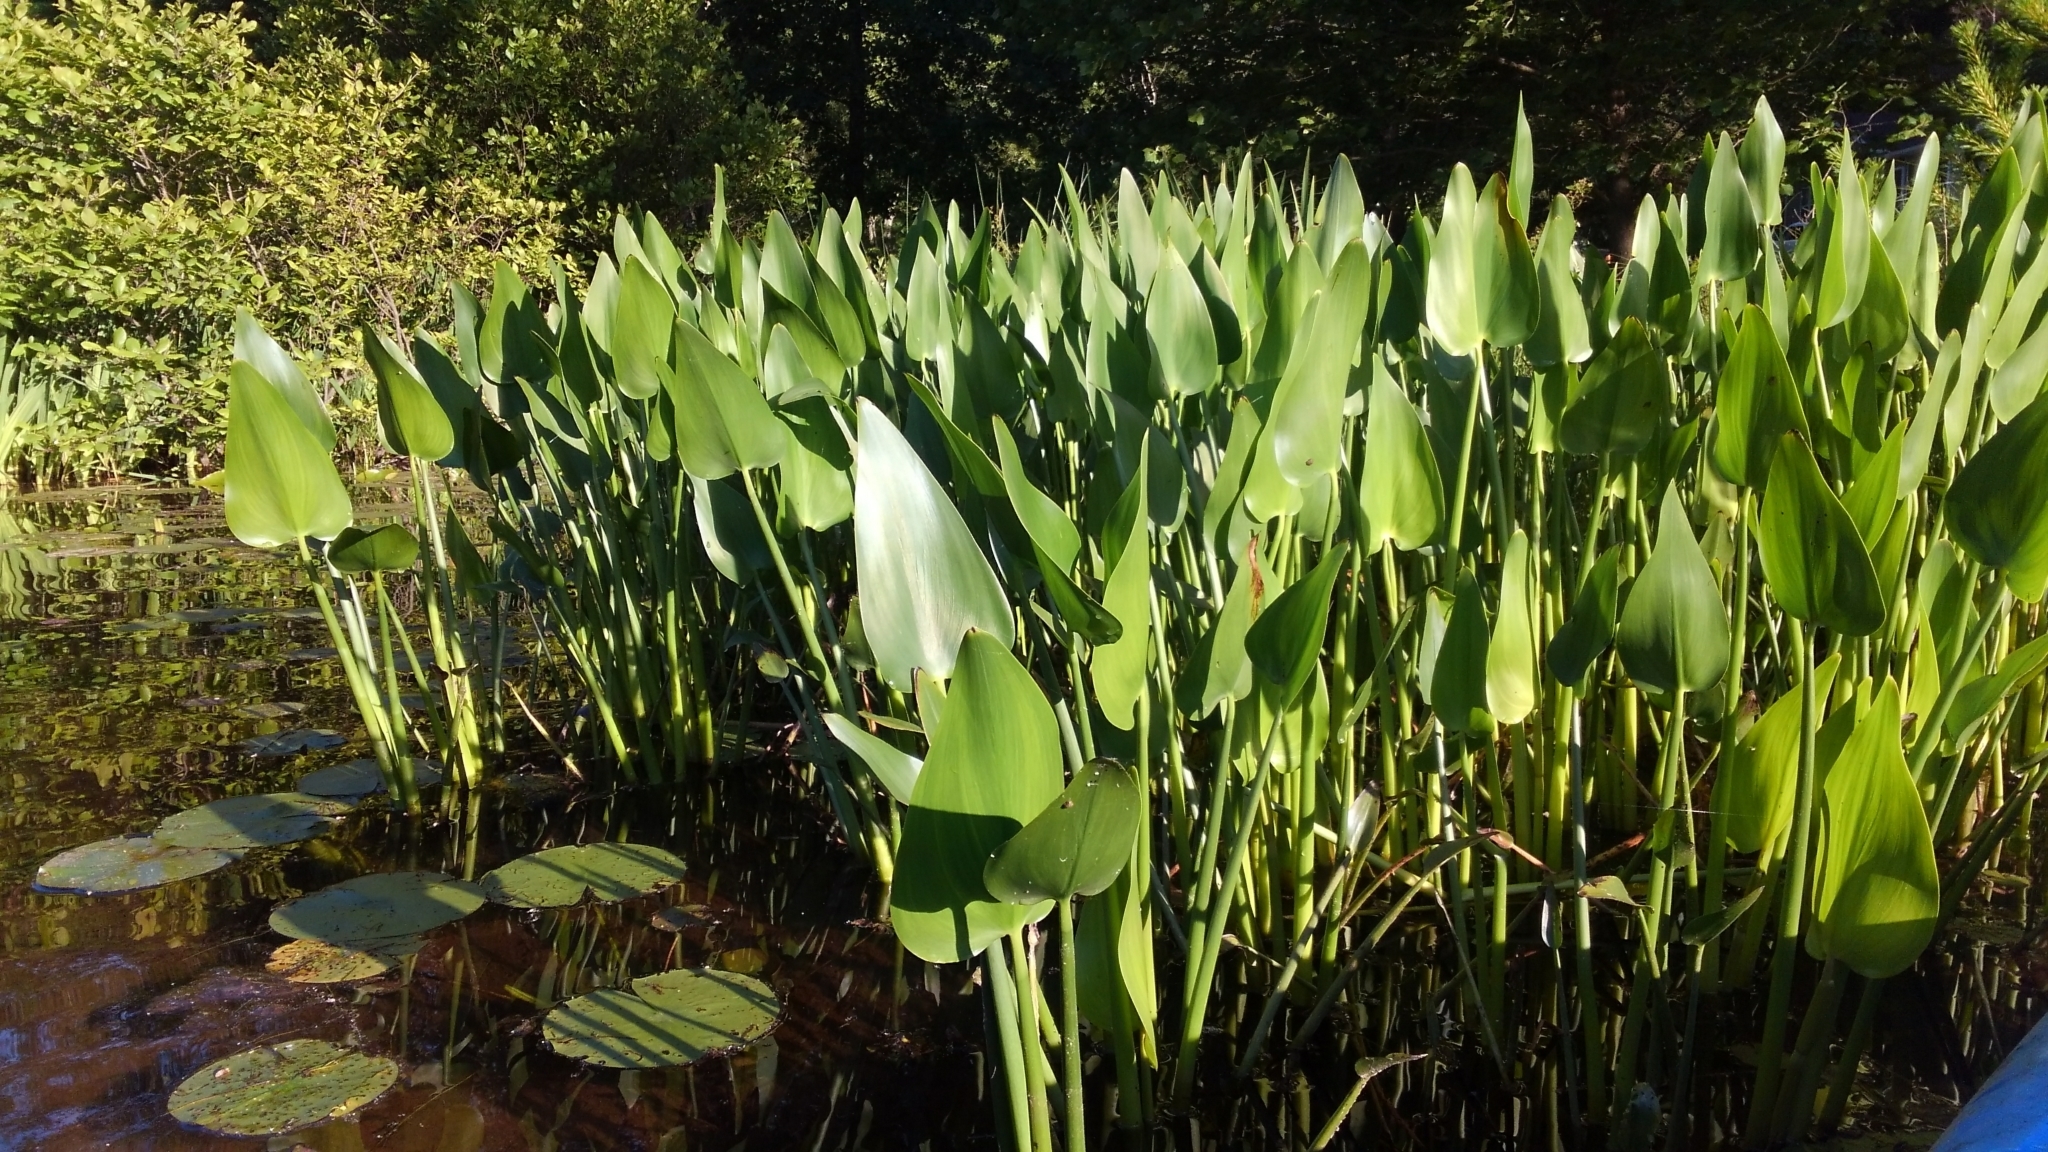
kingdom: Plantae
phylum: Tracheophyta
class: Liliopsida
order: Commelinales
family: Pontederiaceae
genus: Pontederia
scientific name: Pontederia cordata
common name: Pickerelweed
